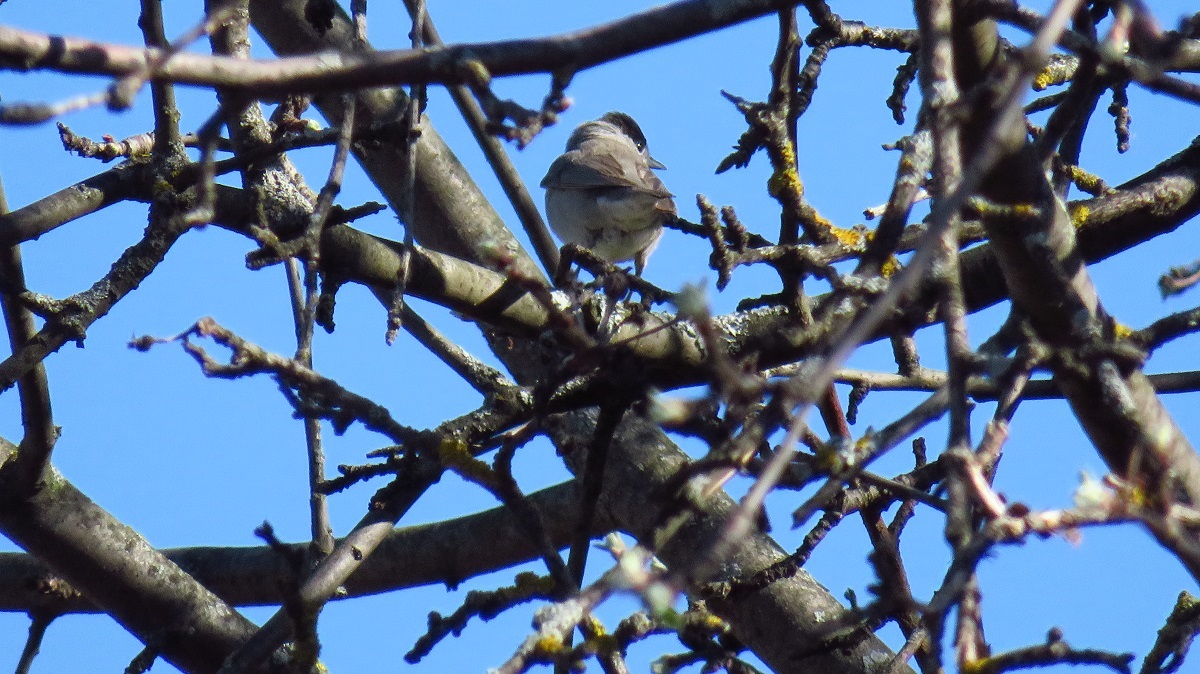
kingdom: Animalia
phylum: Chordata
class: Aves
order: Passeriformes
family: Sylviidae
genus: Sylvia
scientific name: Sylvia atricapilla
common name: Eurasian blackcap
